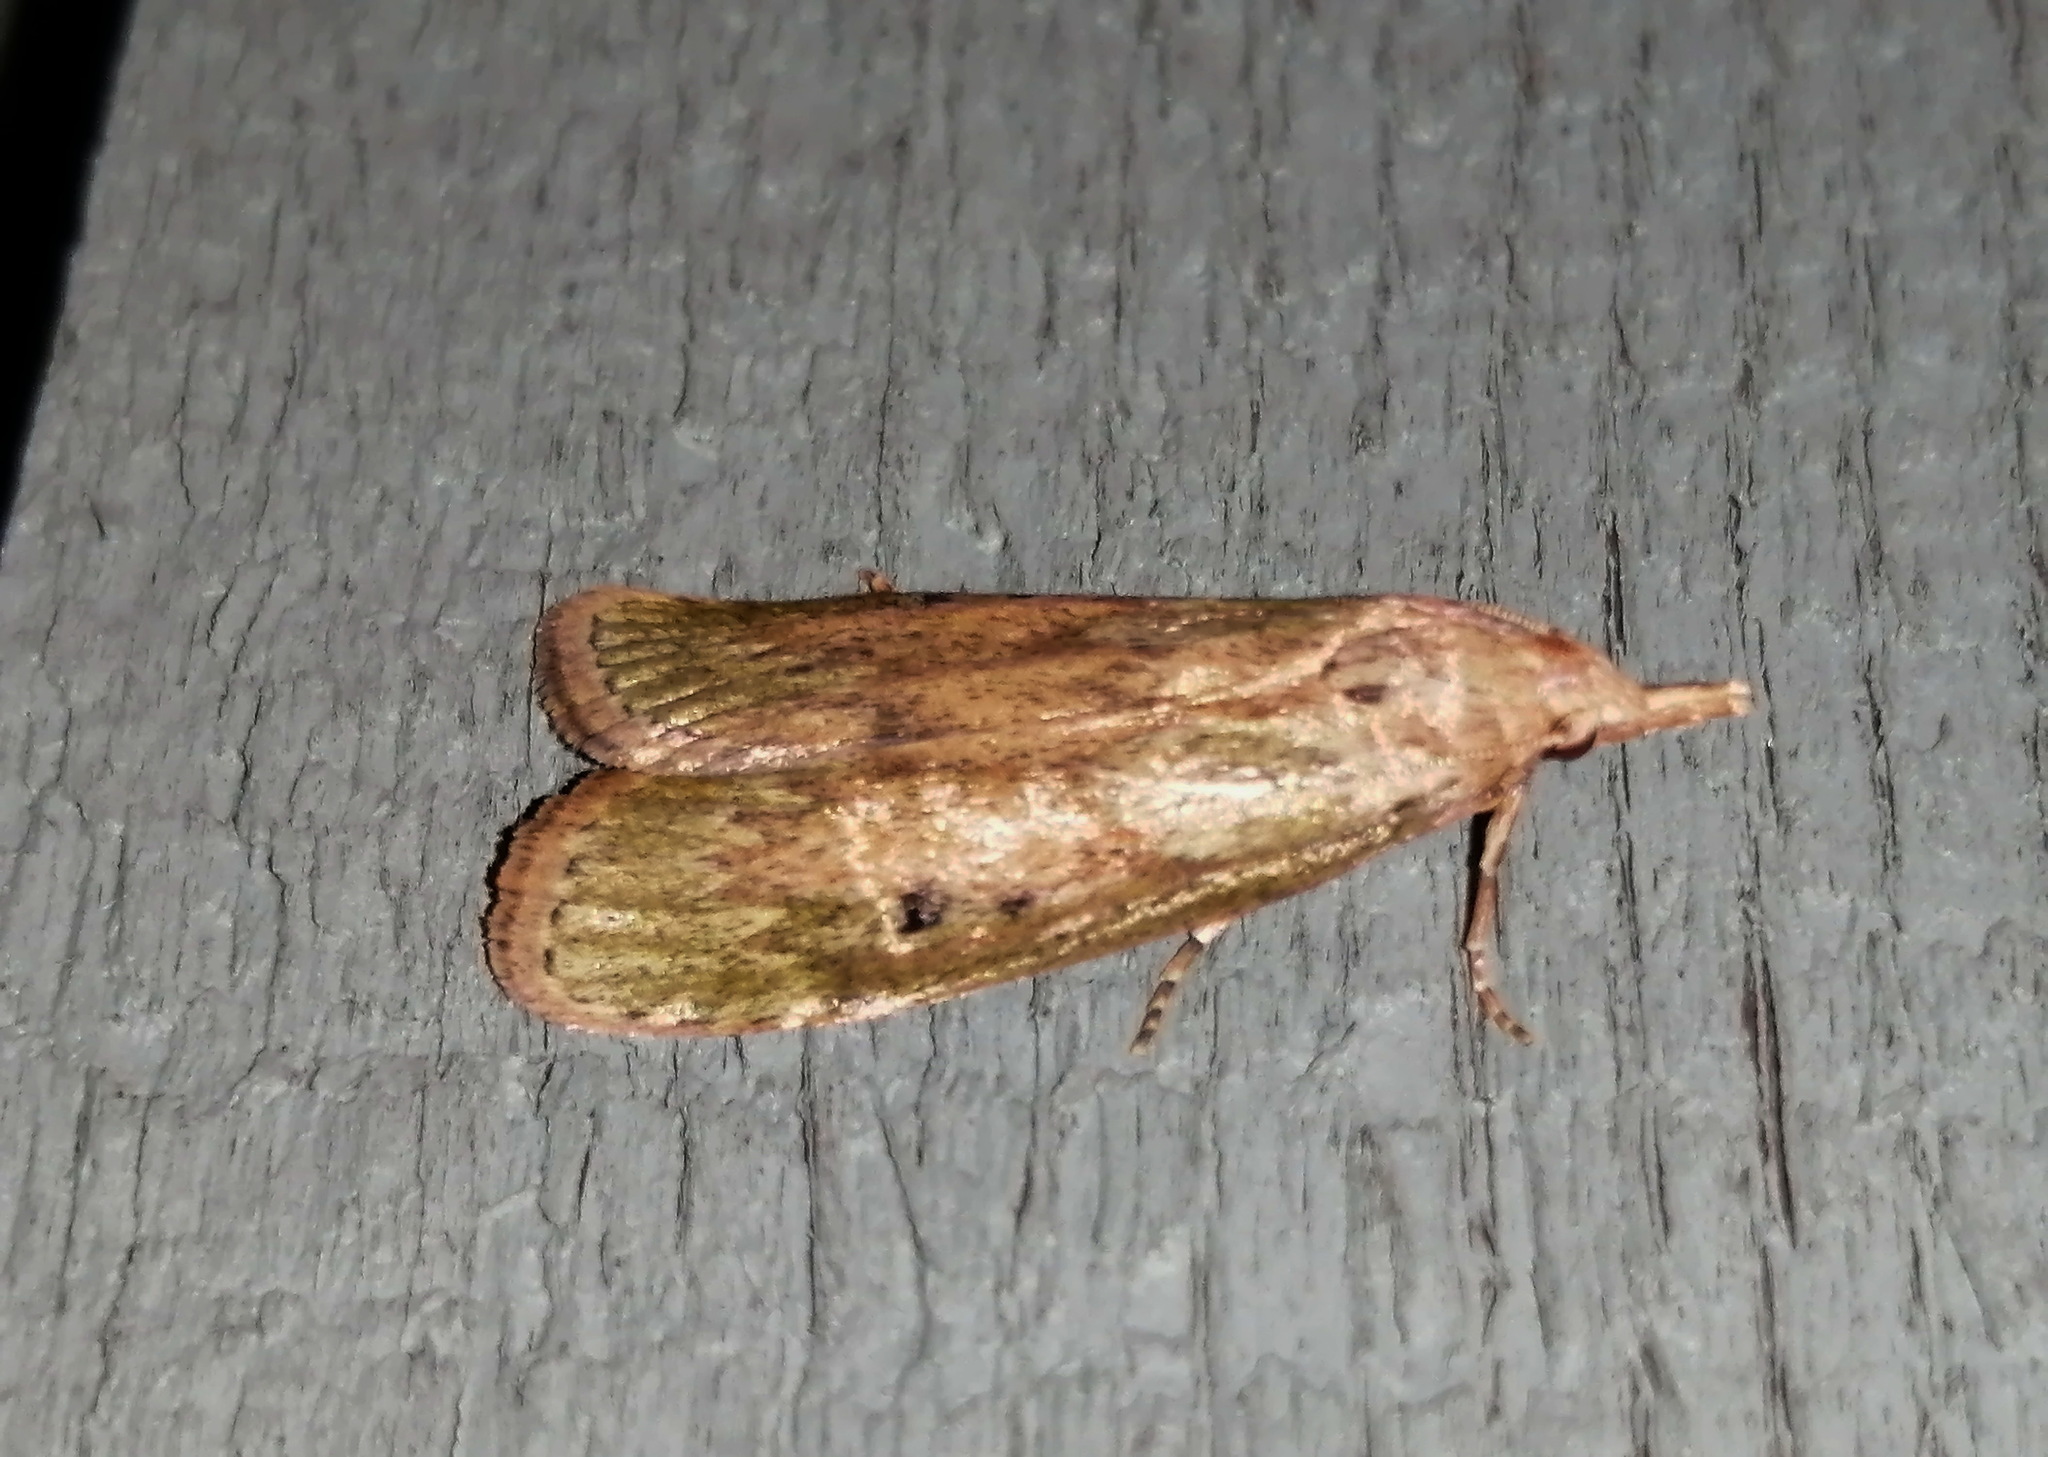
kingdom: Animalia
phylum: Arthropoda
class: Insecta
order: Lepidoptera
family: Pyralidae
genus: Aphomia
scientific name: Aphomia sociella
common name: Bee moth
